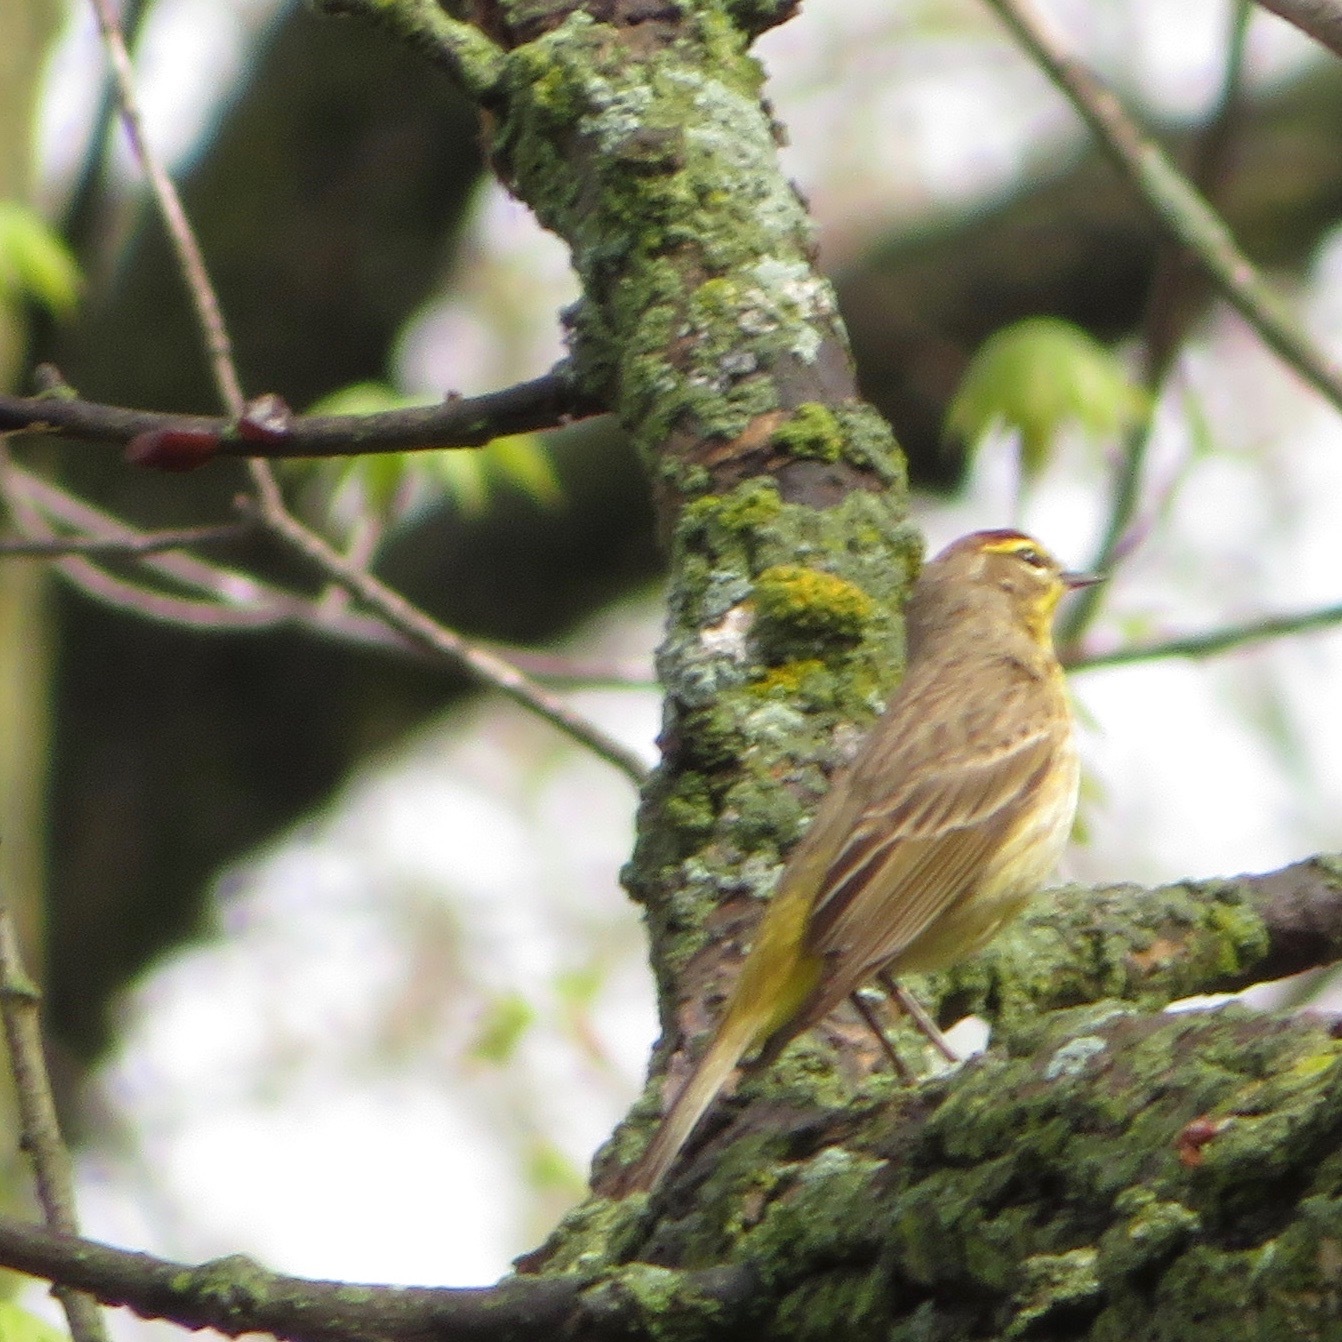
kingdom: Animalia
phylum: Chordata
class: Aves
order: Passeriformes
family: Parulidae
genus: Setophaga
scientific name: Setophaga palmarum
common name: Palm warbler
